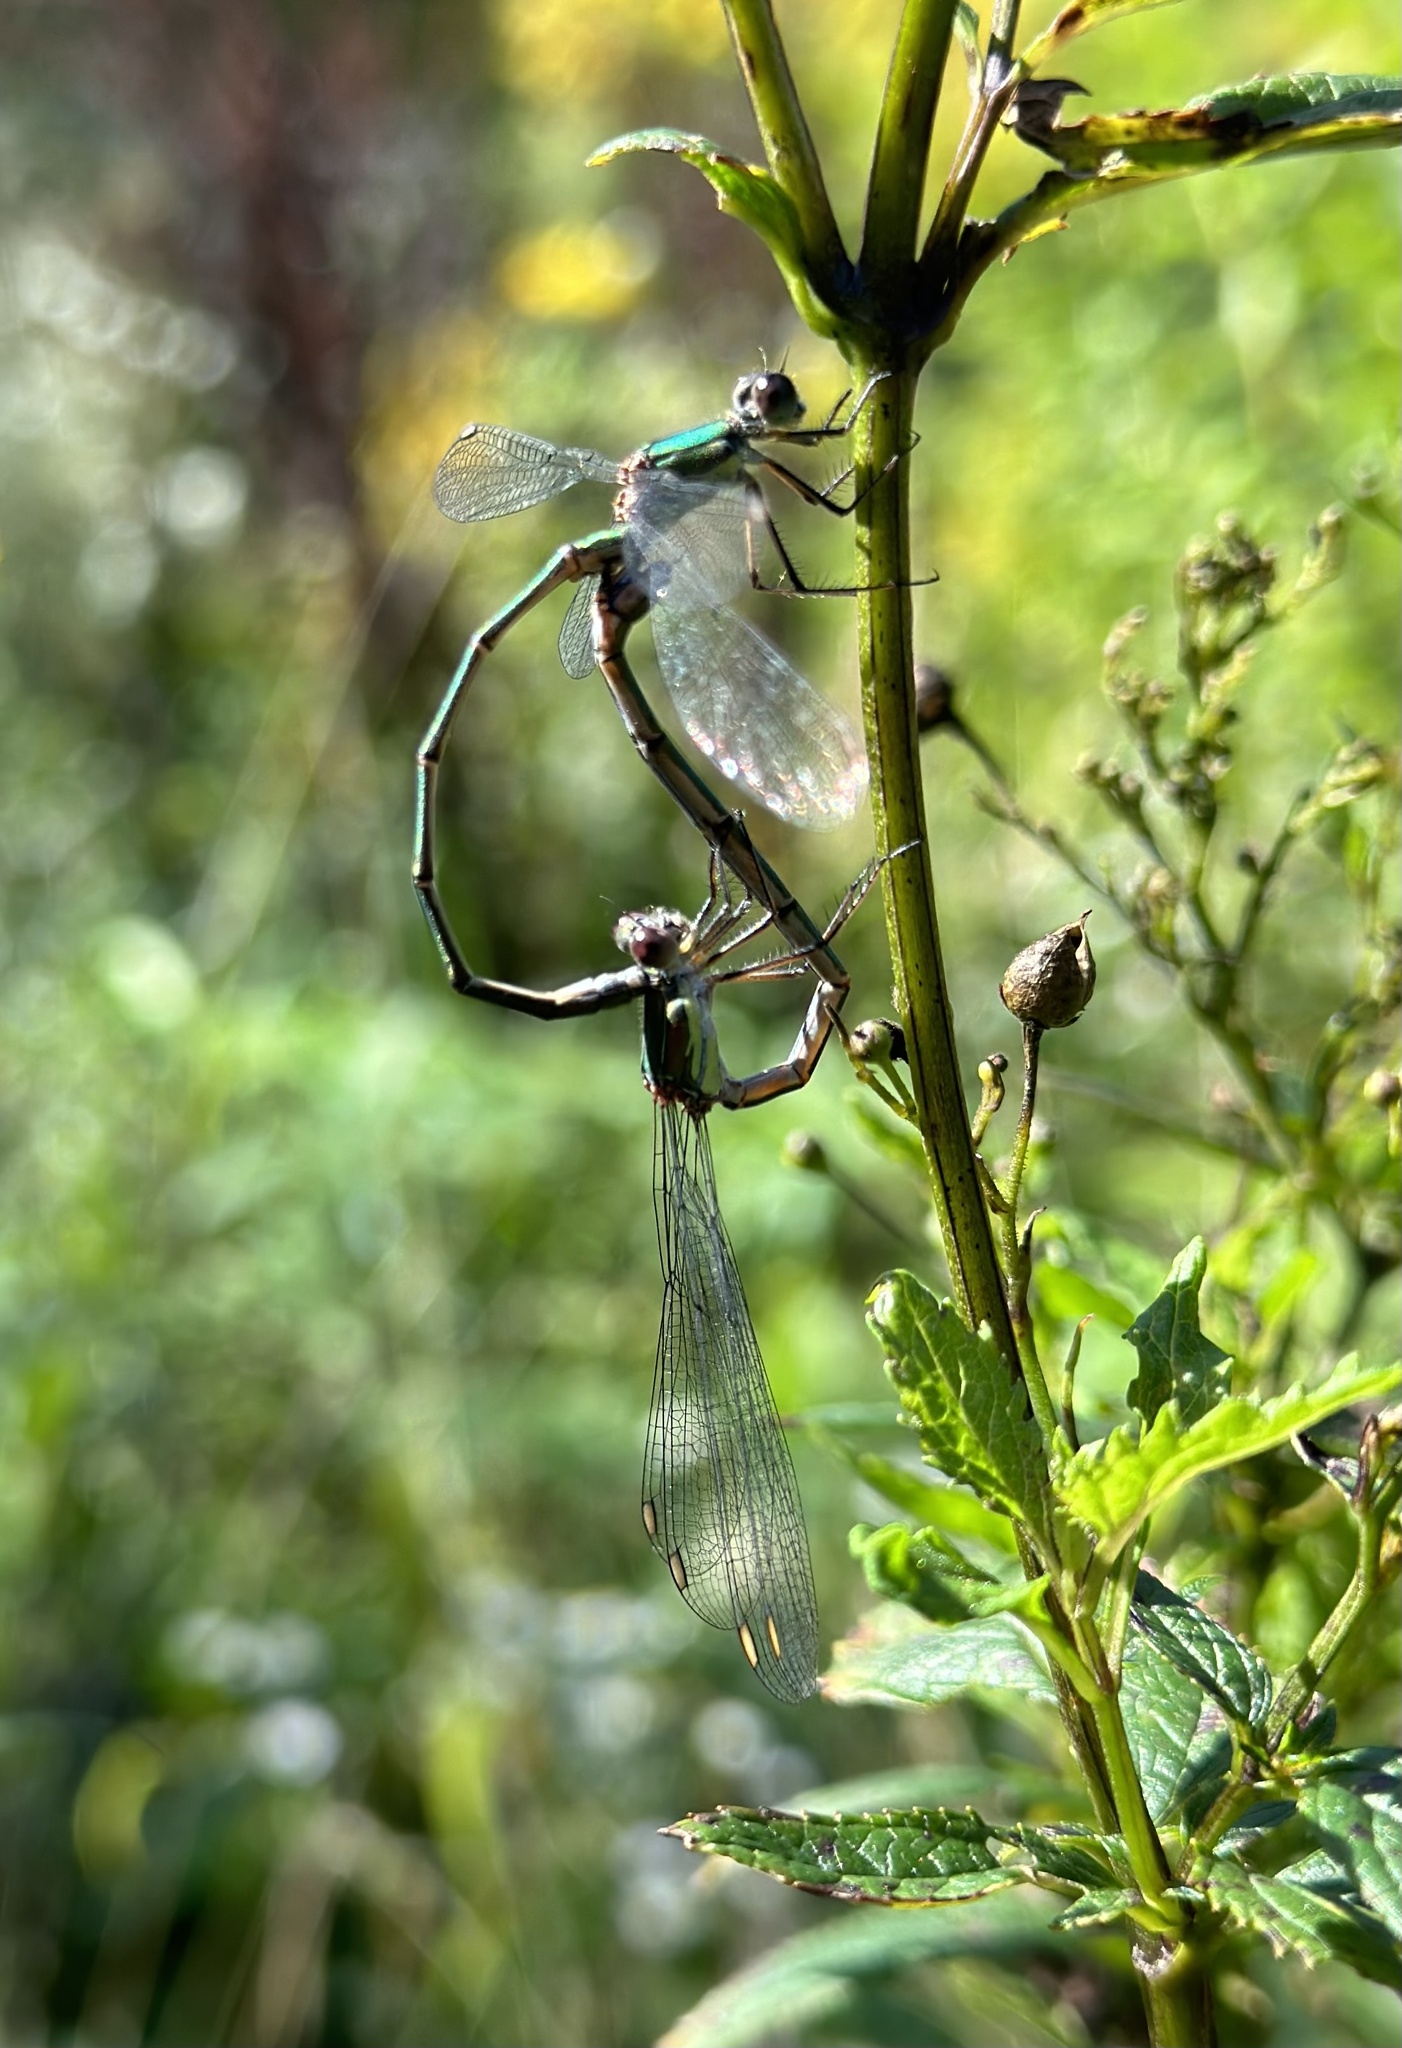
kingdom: Animalia
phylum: Arthropoda
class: Insecta
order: Odonata
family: Lestidae
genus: Chalcolestes
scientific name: Chalcolestes viridis
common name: Green emerald damselfly
